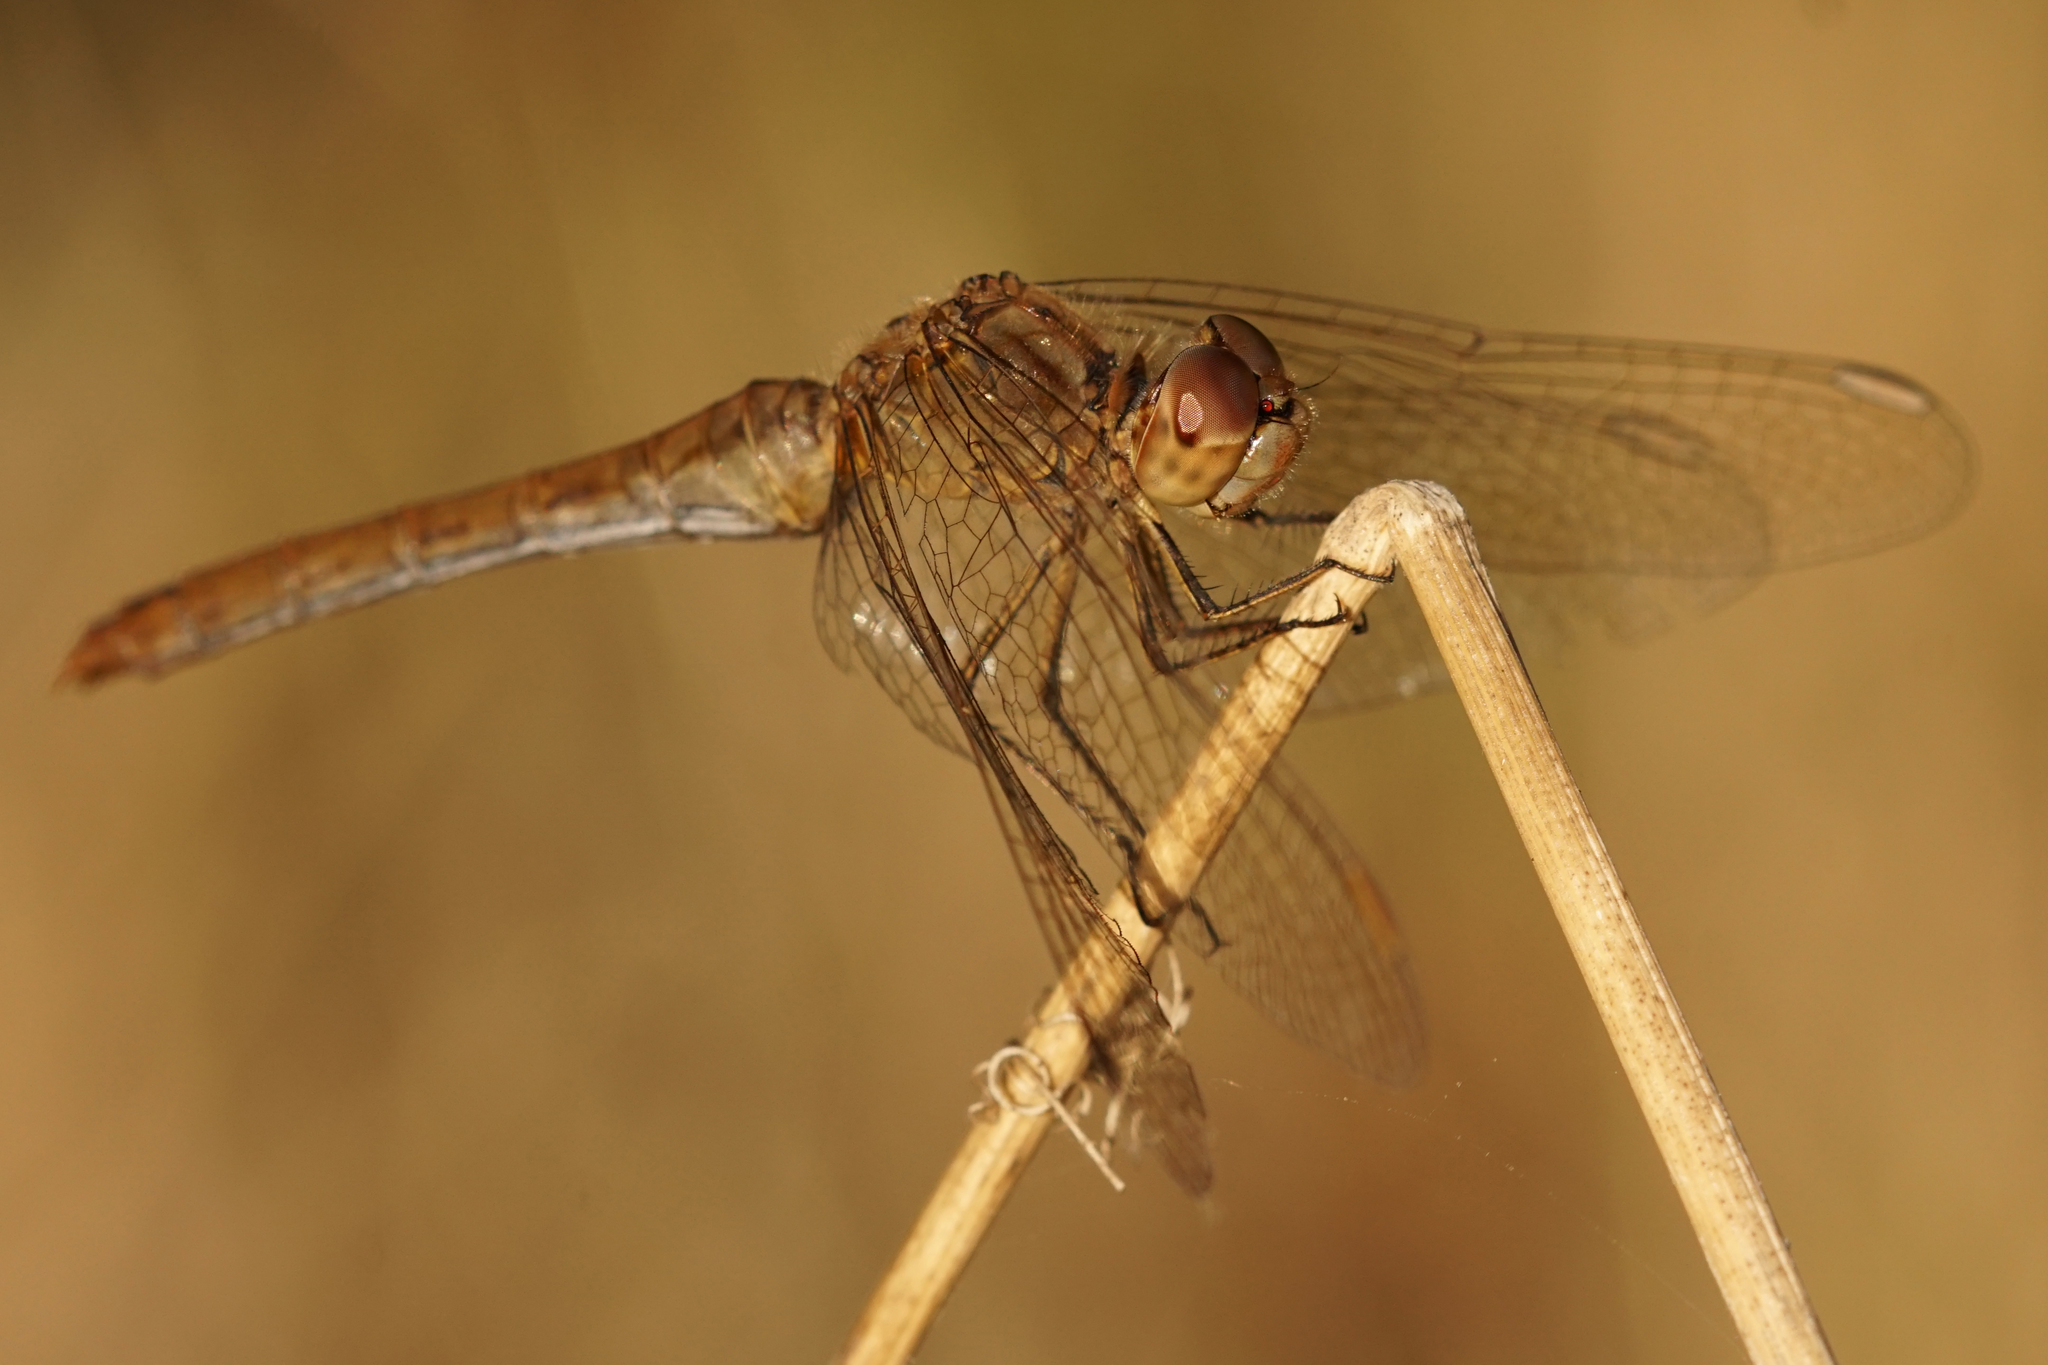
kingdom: Animalia
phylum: Arthropoda
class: Insecta
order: Odonata
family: Libellulidae
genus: Sympetrum
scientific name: Sympetrum meridionale
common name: Southern darter
